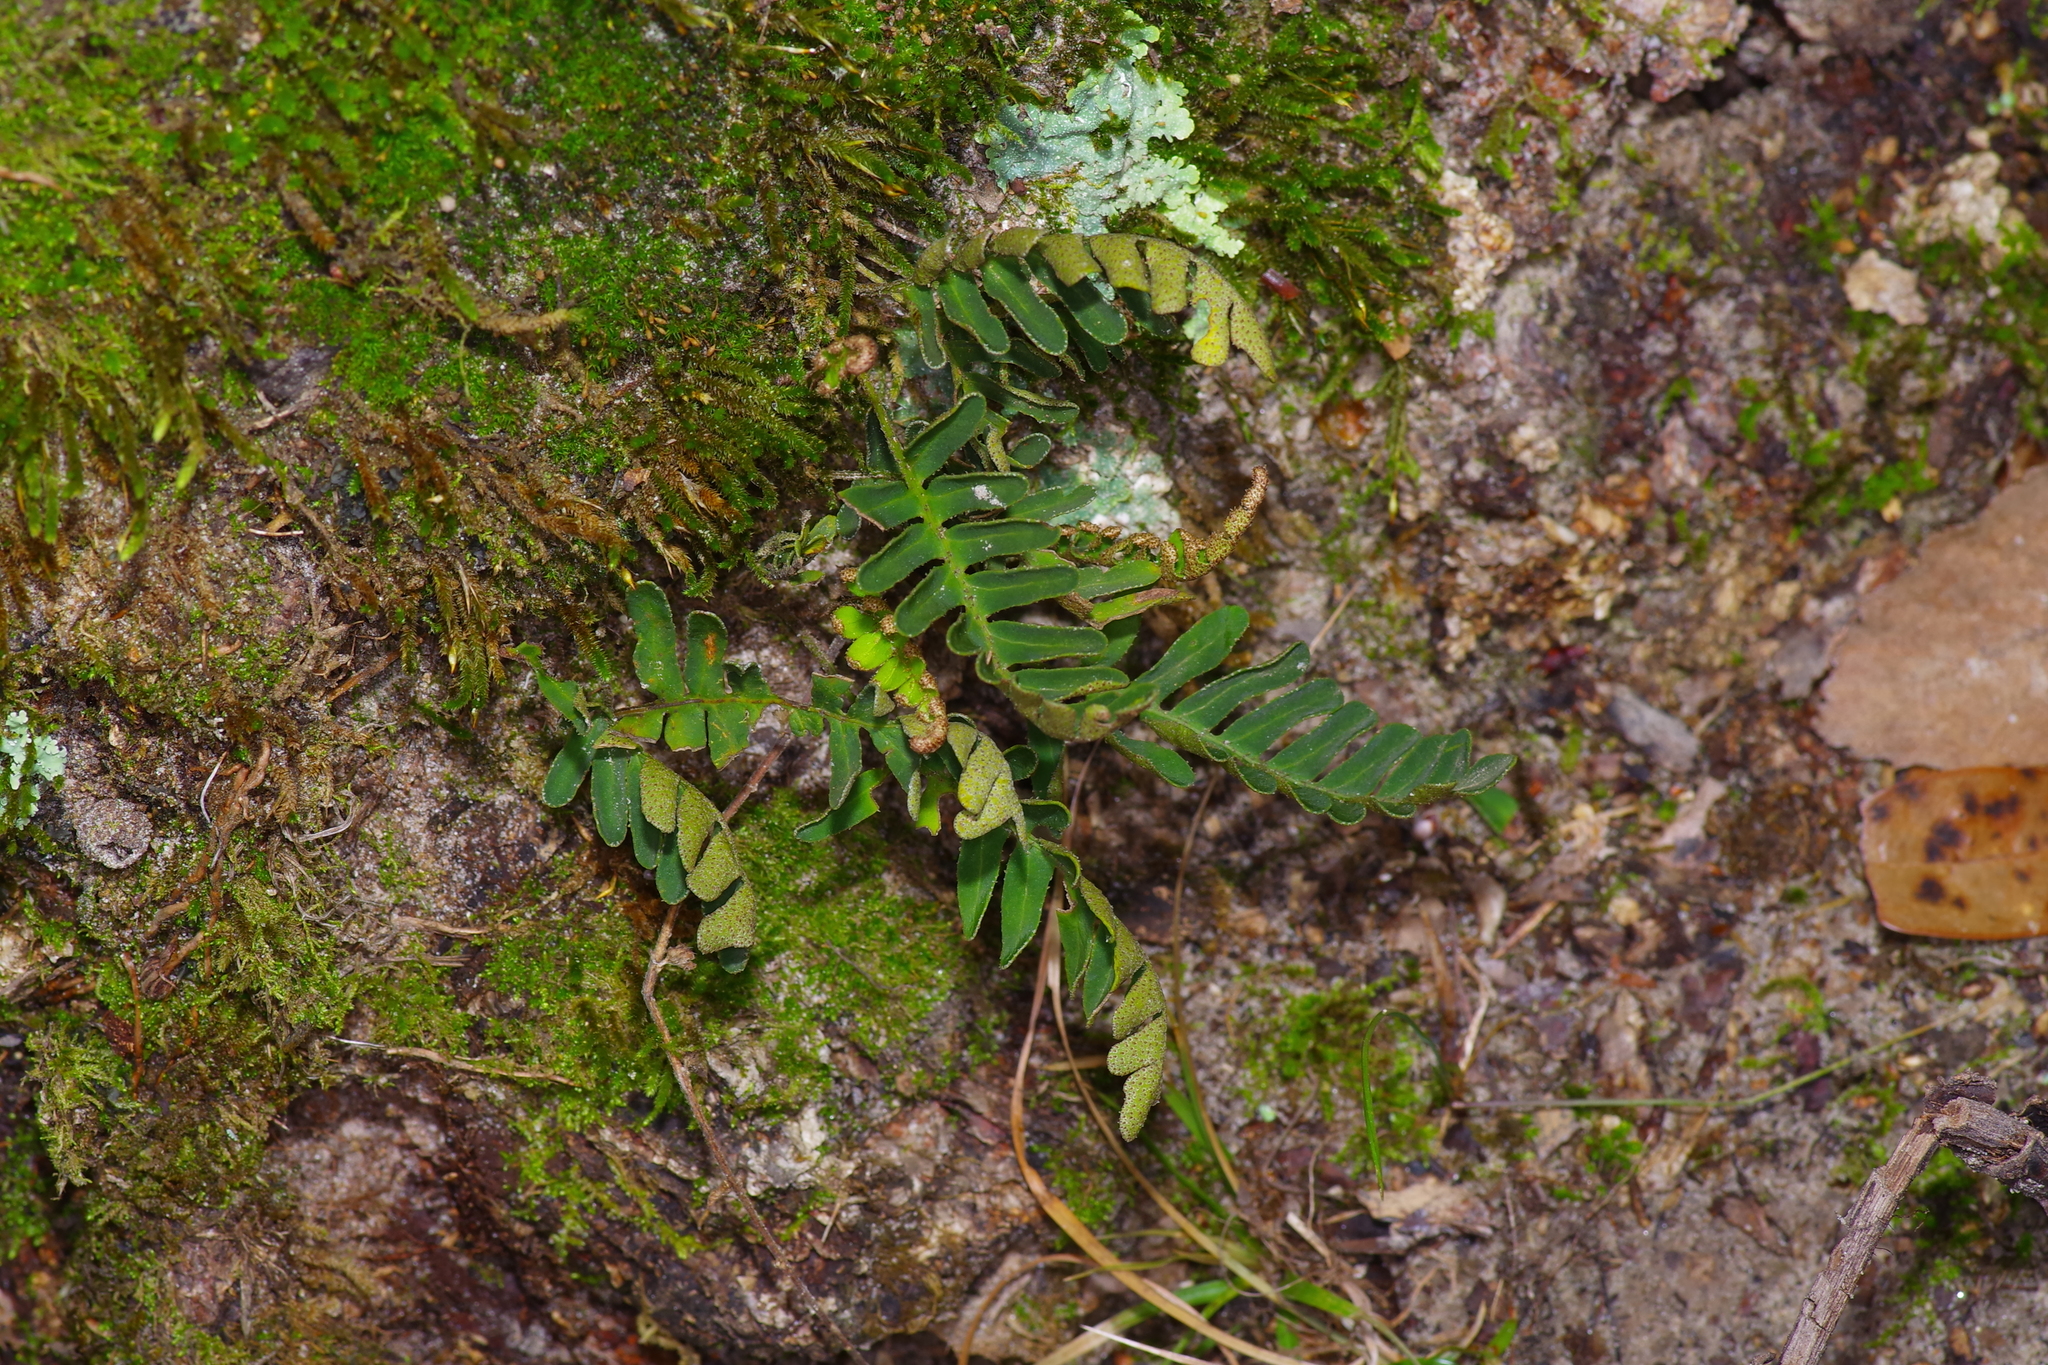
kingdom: Plantae
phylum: Tracheophyta
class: Polypodiopsida
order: Polypodiales
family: Polypodiaceae
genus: Pleopeltis
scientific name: Pleopeltis michauxiana
